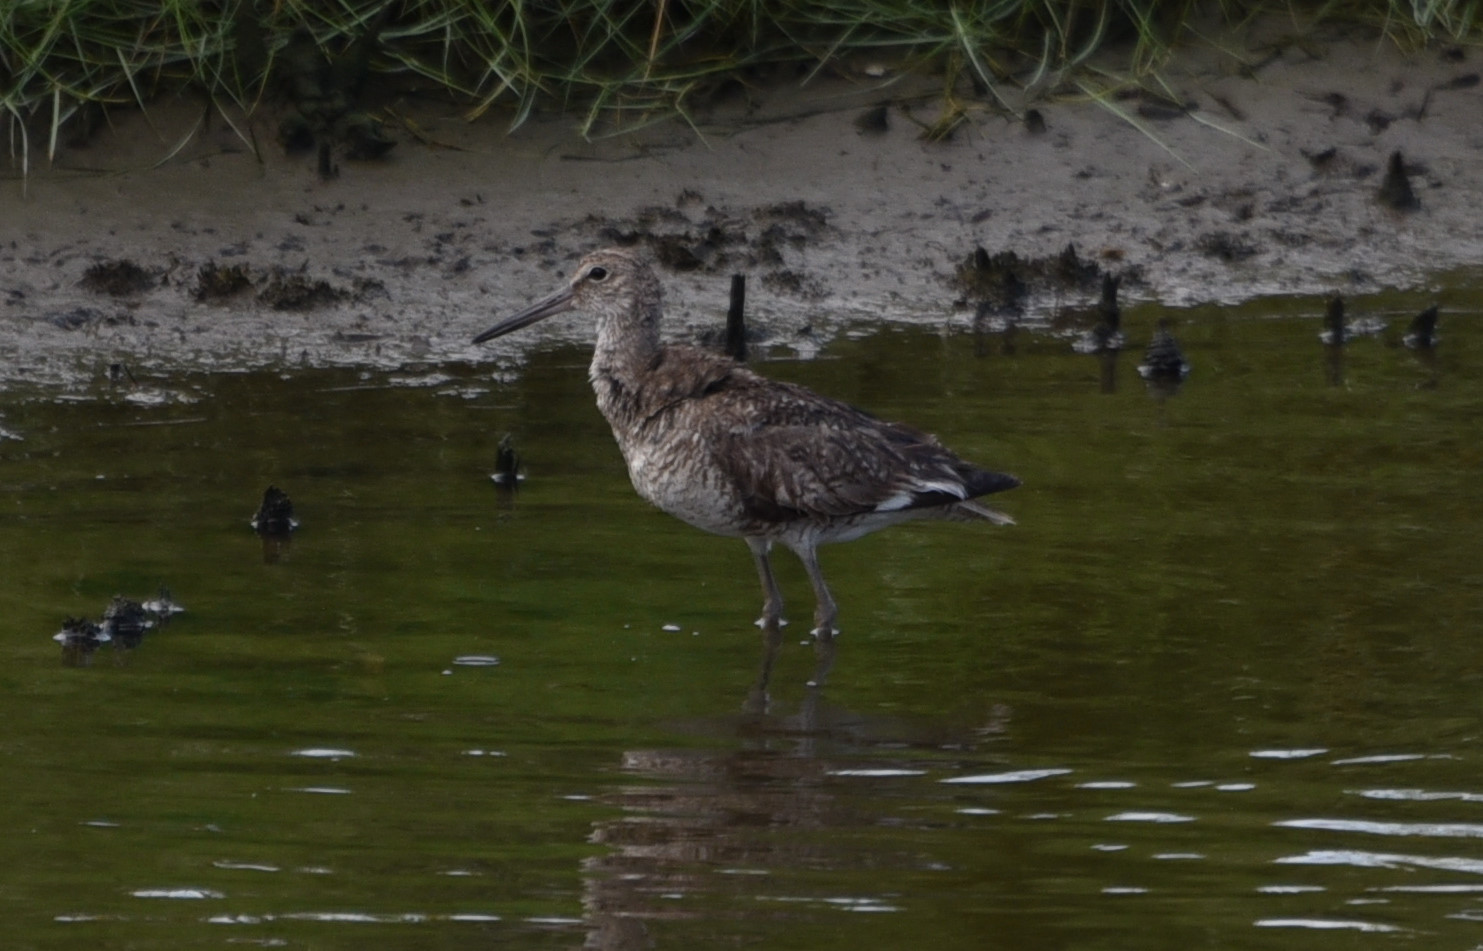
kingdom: Animalia
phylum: Chordata
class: Aves
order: Charadriiformes
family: Scolopacidae
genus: Tringa
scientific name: Tringa semipalmata
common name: Willet
